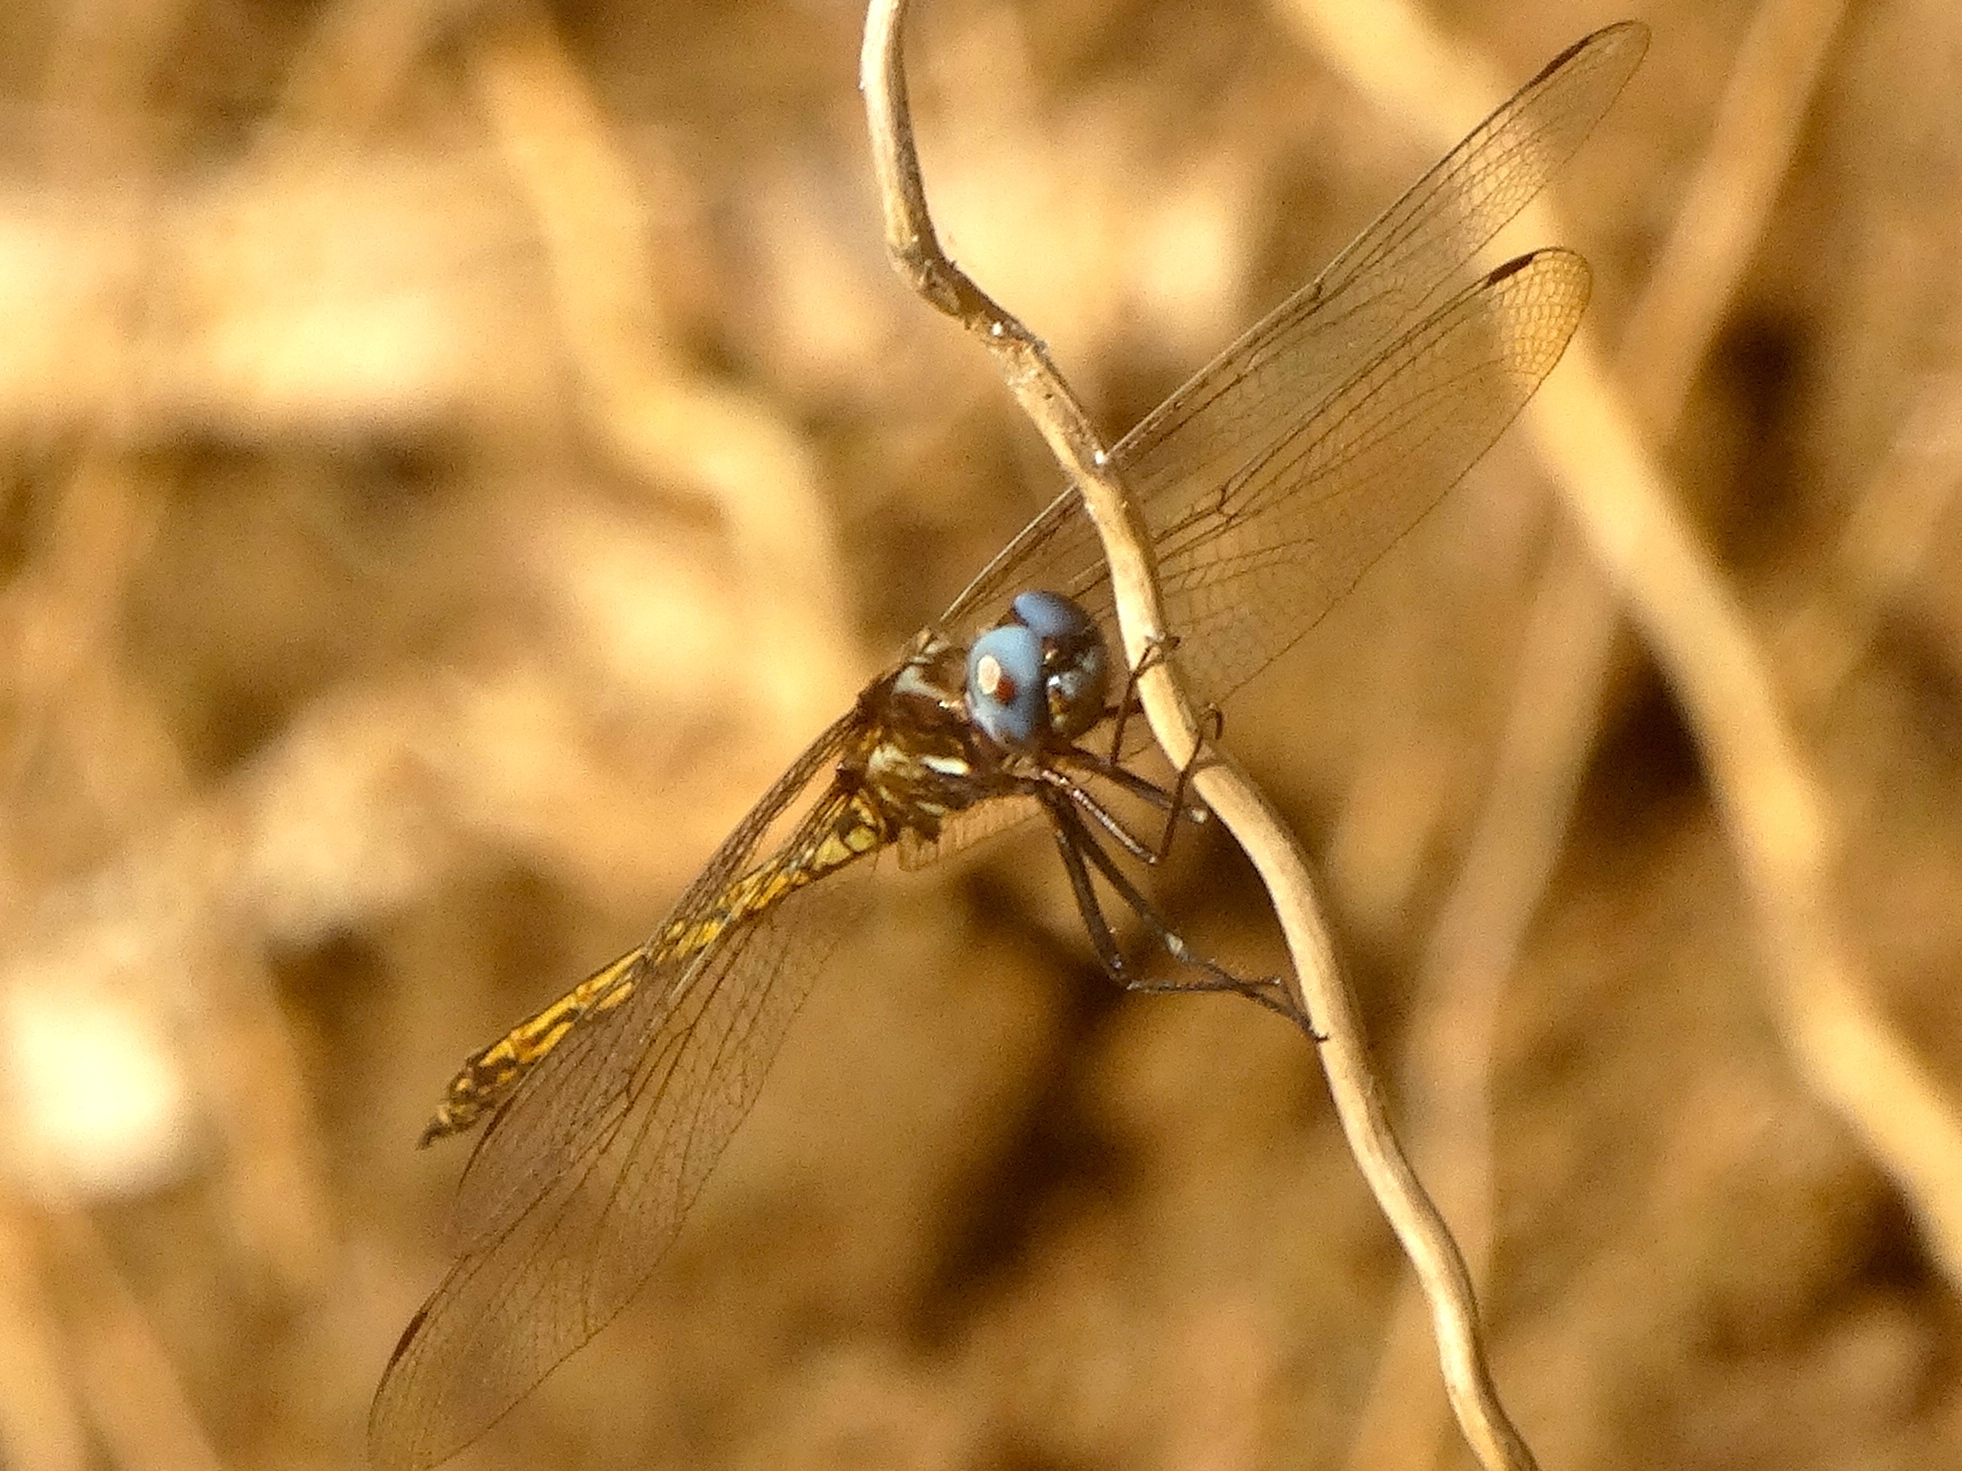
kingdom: Animalia
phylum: Arthropoda
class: Insecta
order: Odonata
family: Libellulidae
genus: Macrothemis
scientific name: Macrothemis inacuta
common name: Straw-colored sylph
